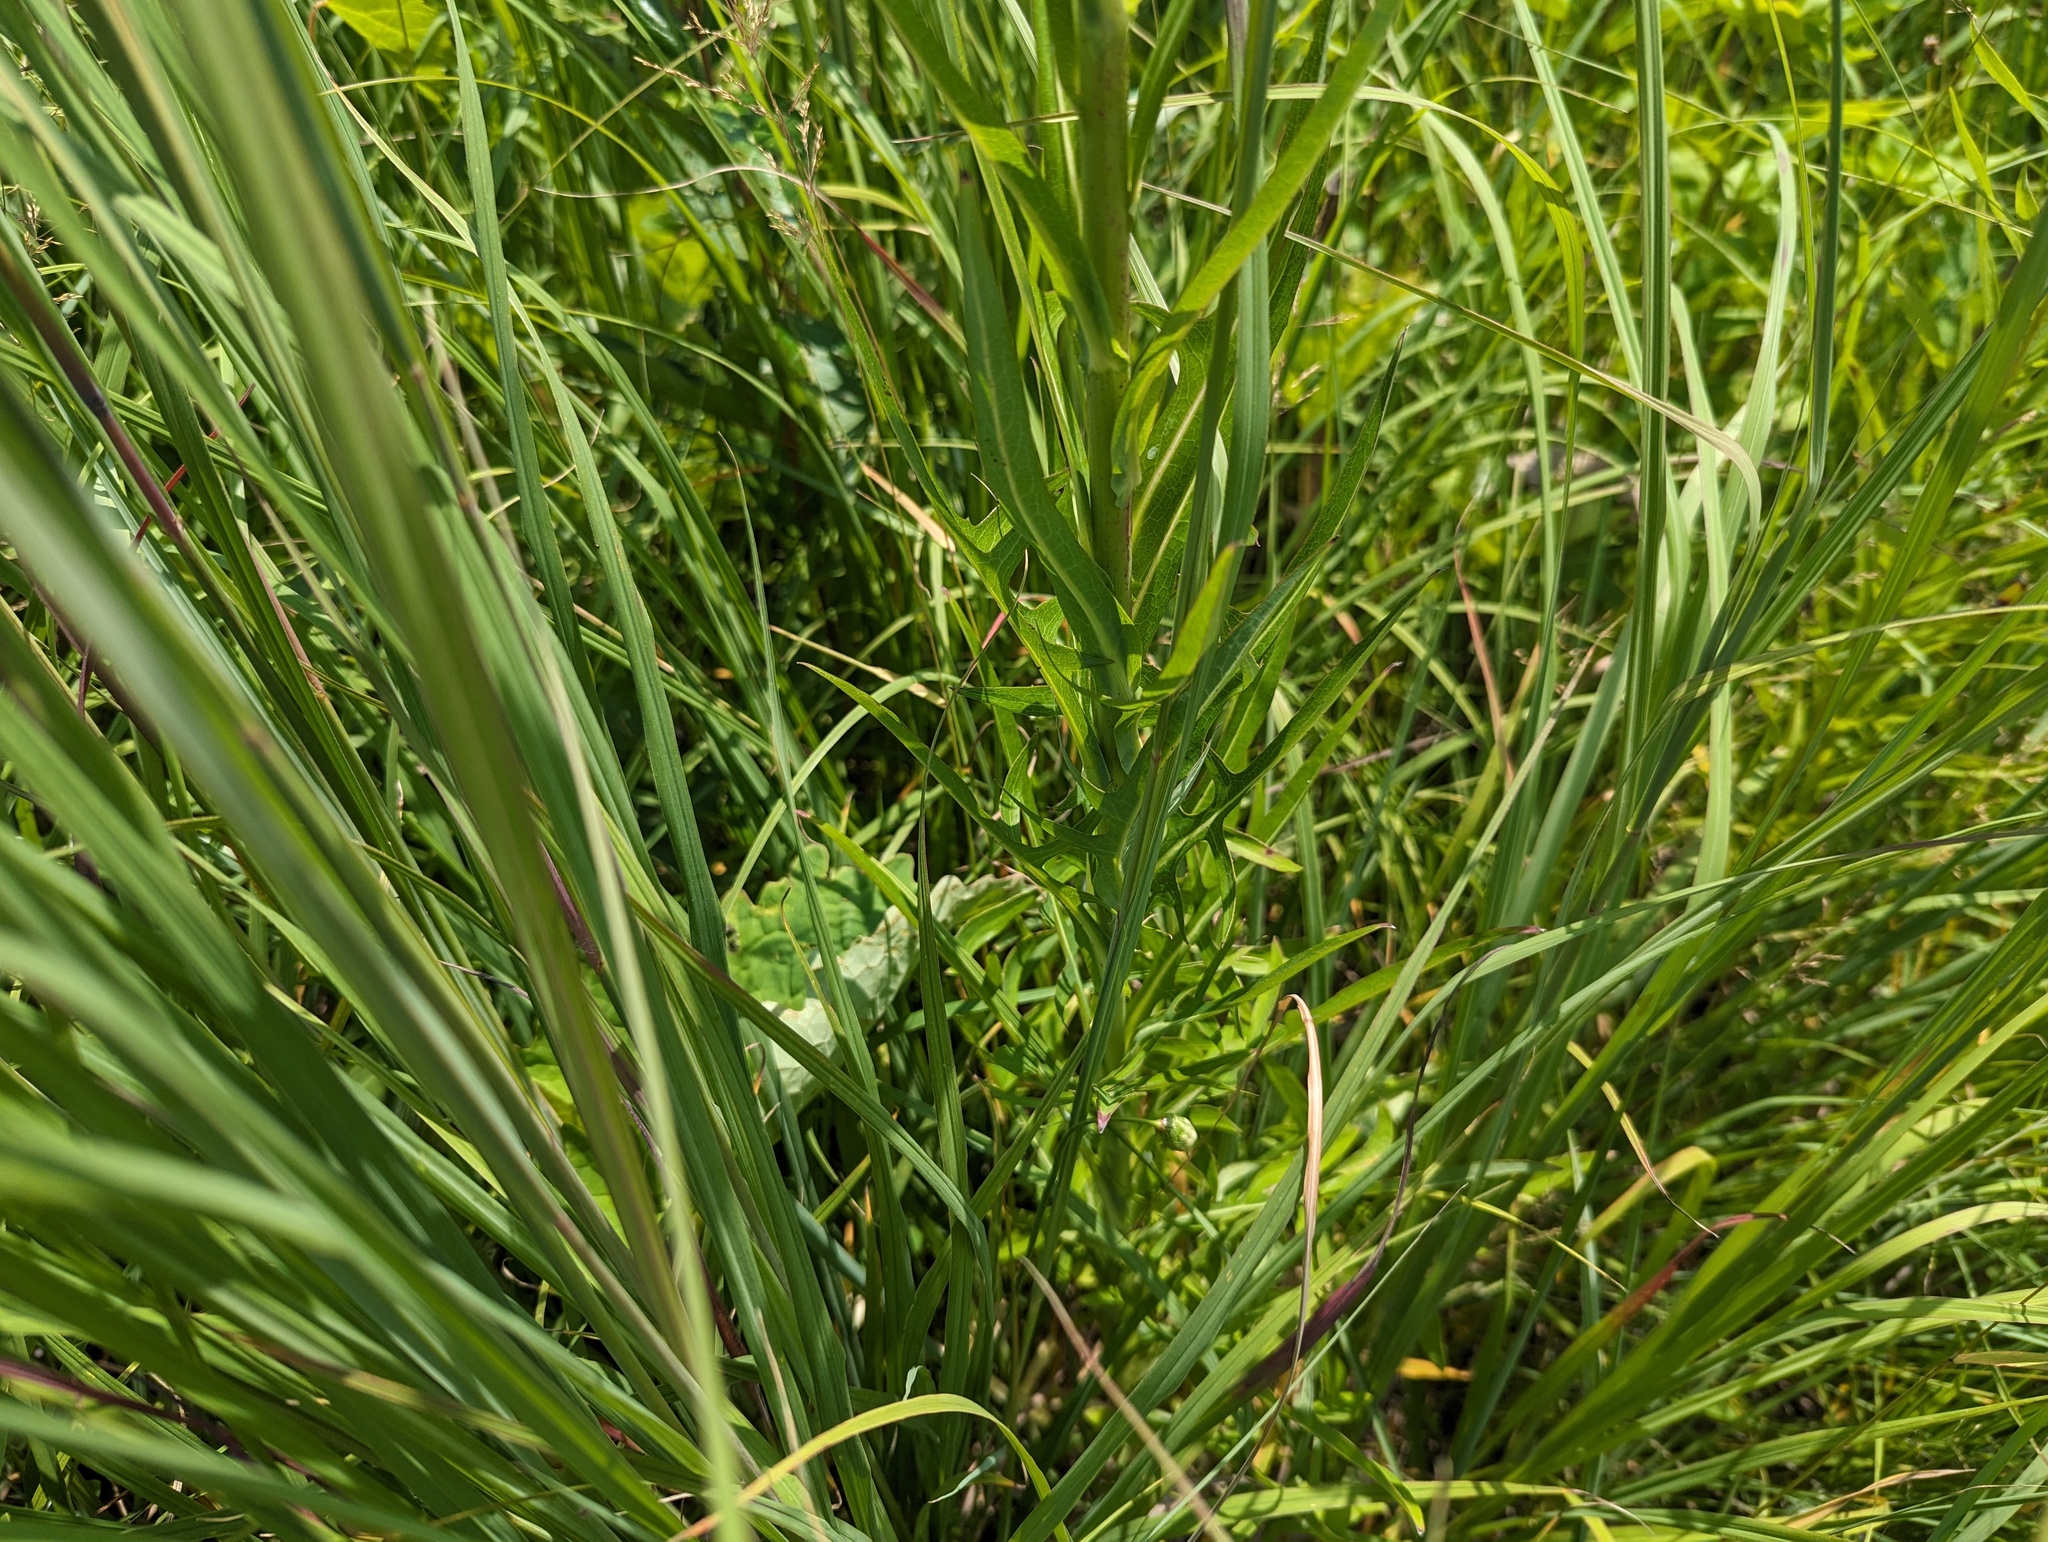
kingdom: Plantae
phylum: Tracheophyta
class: Magnoliopsida
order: Asterales
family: Asteraceae
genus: Lactuca
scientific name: Lactuca canadensis
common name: Canada lettuce
